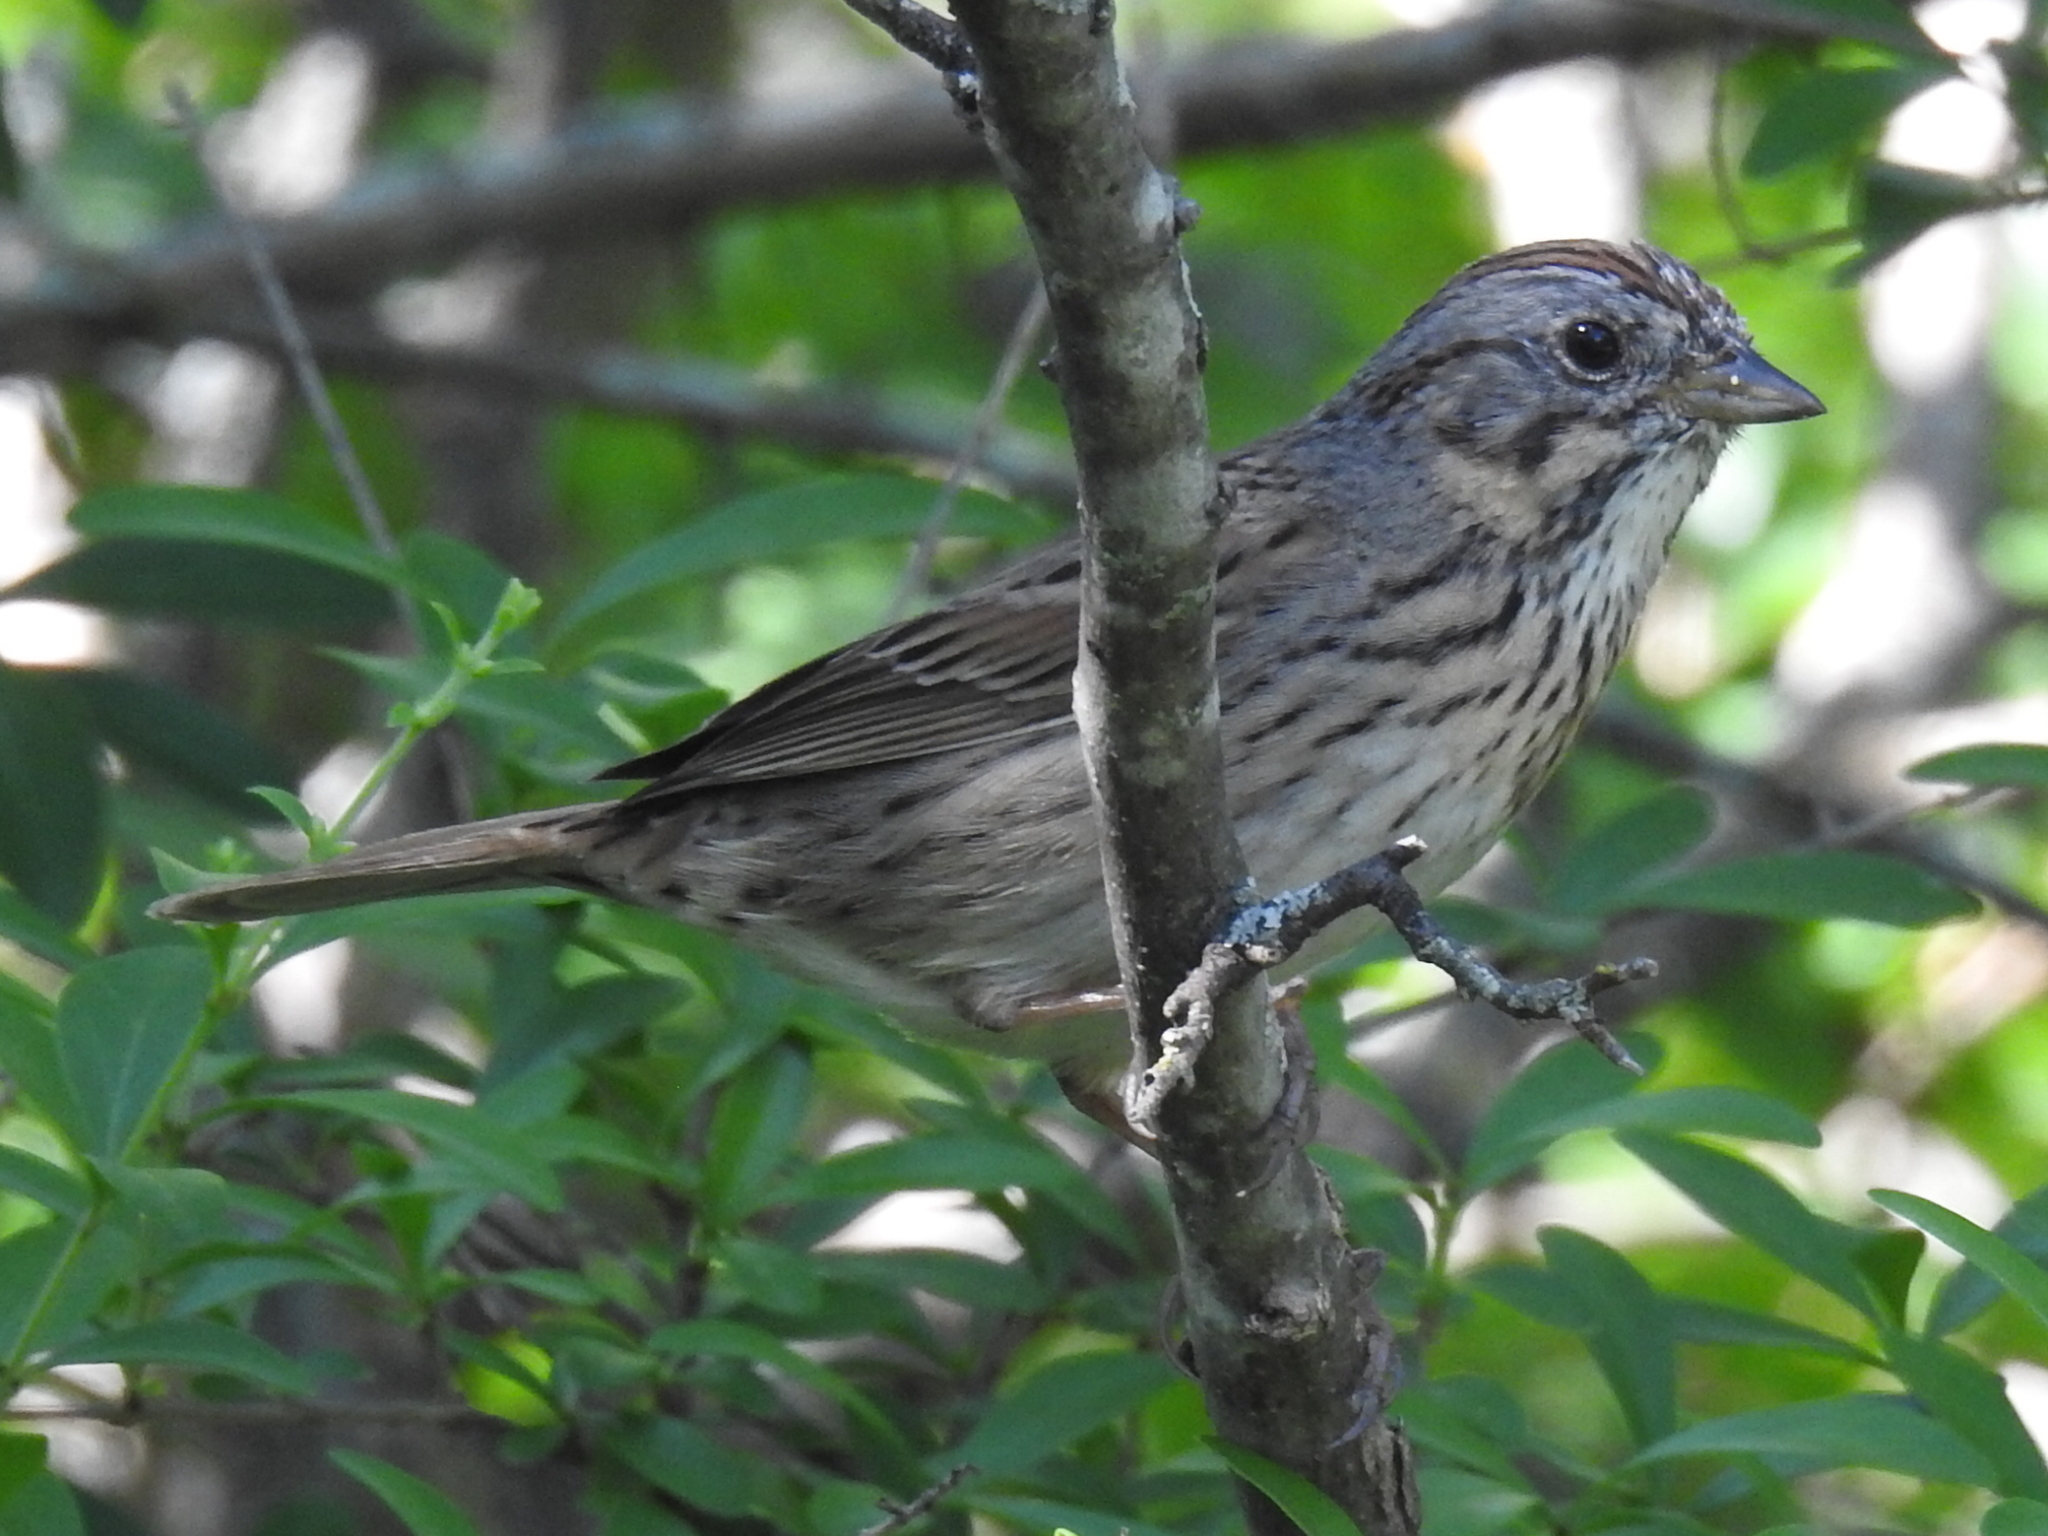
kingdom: Animalia
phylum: Chordata
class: Aves
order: Passeriformes
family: Passerellidae
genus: Melospiza
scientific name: Melospiza lincolnii
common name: Lincoln's sparrow
